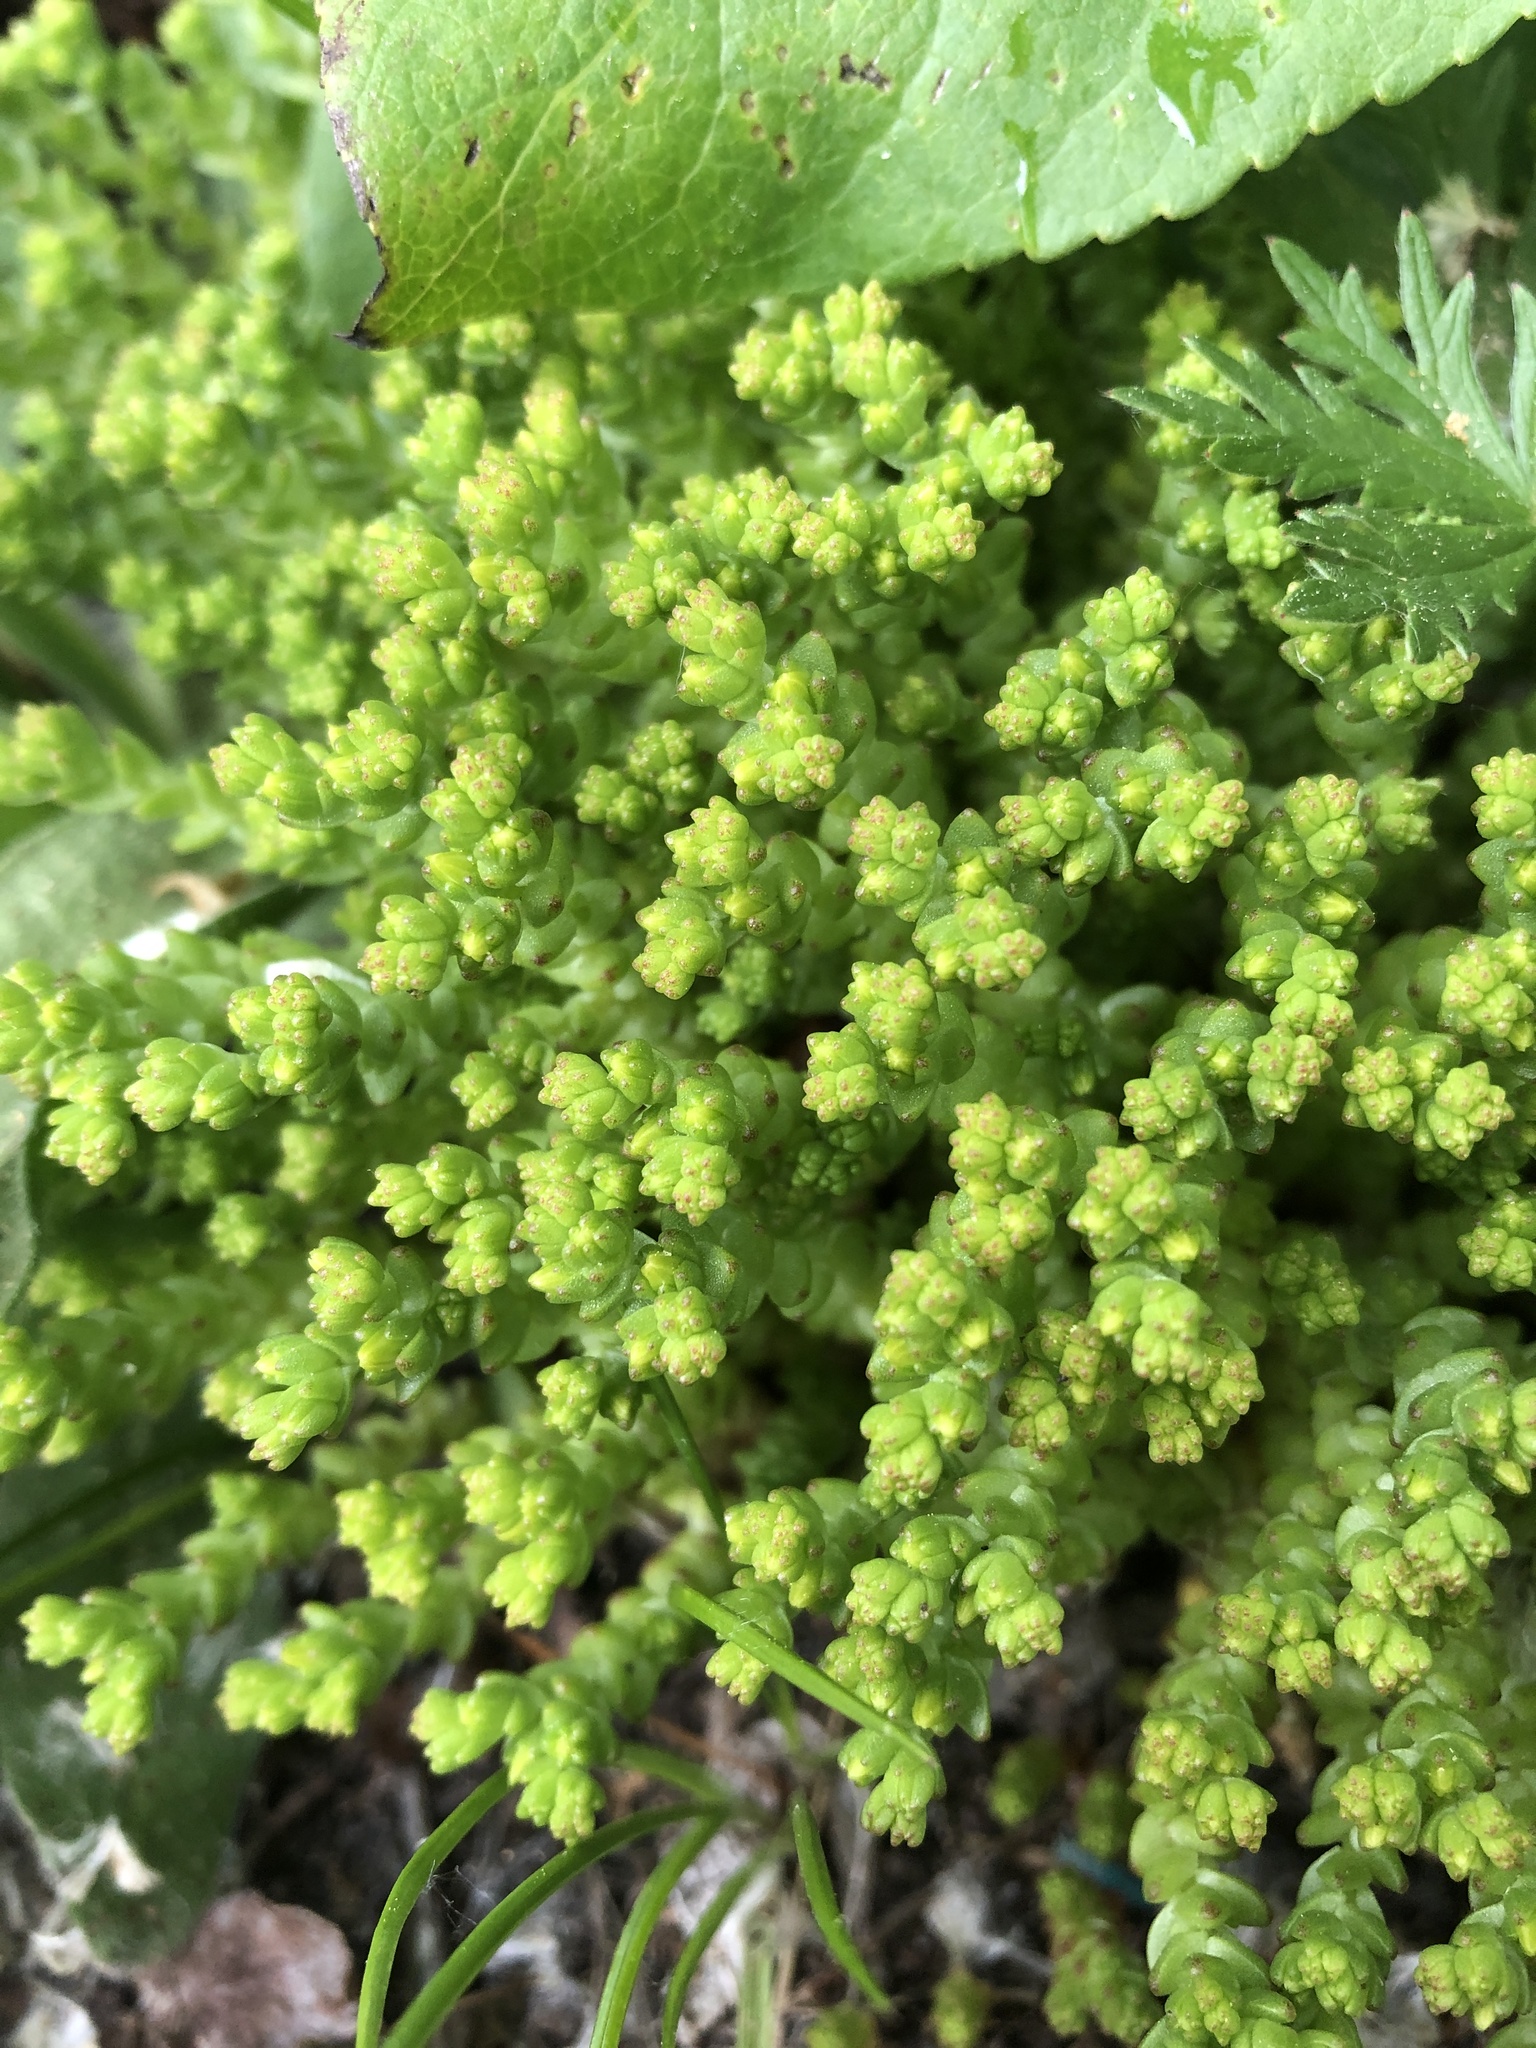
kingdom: Plantae
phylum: Tracheophyta
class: Magnoliopsida
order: Saxifragales
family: Crassulaceae
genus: Sedum
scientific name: Sedum acre
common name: Biting stonecrop
